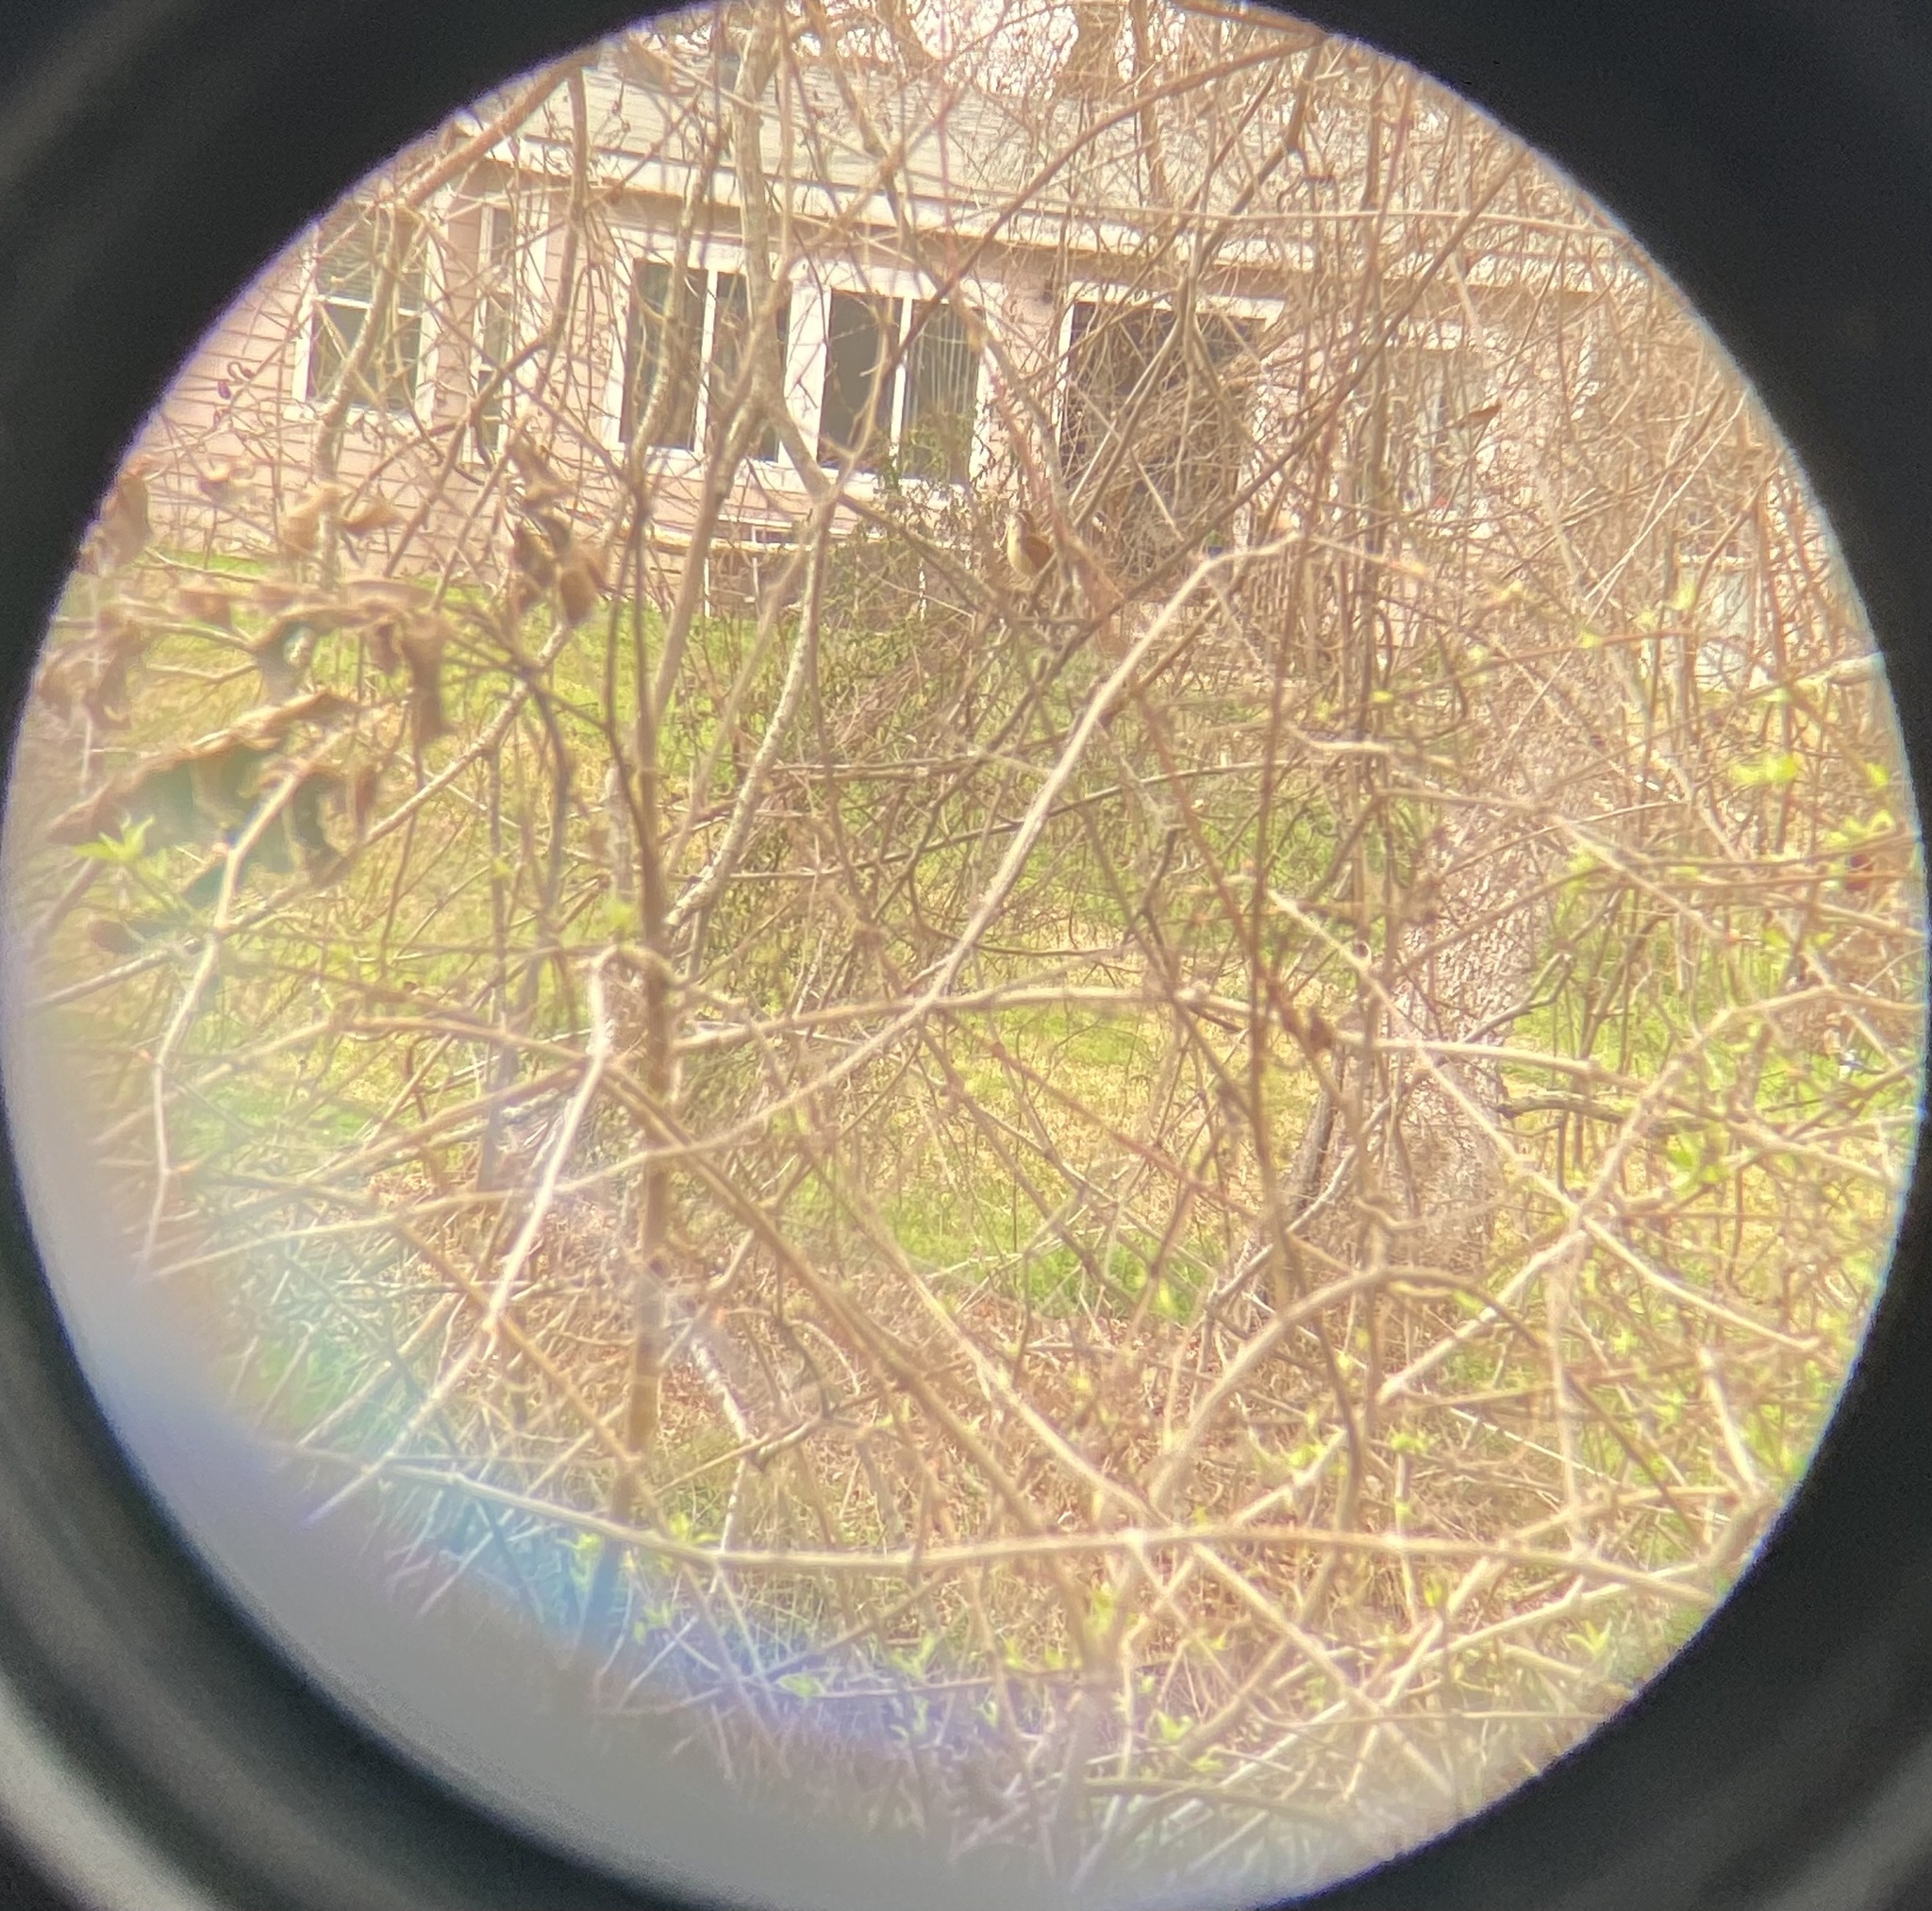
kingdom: Animalia
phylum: Chordata
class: Aves
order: Passeriformes
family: Troglodytidae
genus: Thryothorus
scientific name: Thryothorus ludovicianus
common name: Carolina wren
